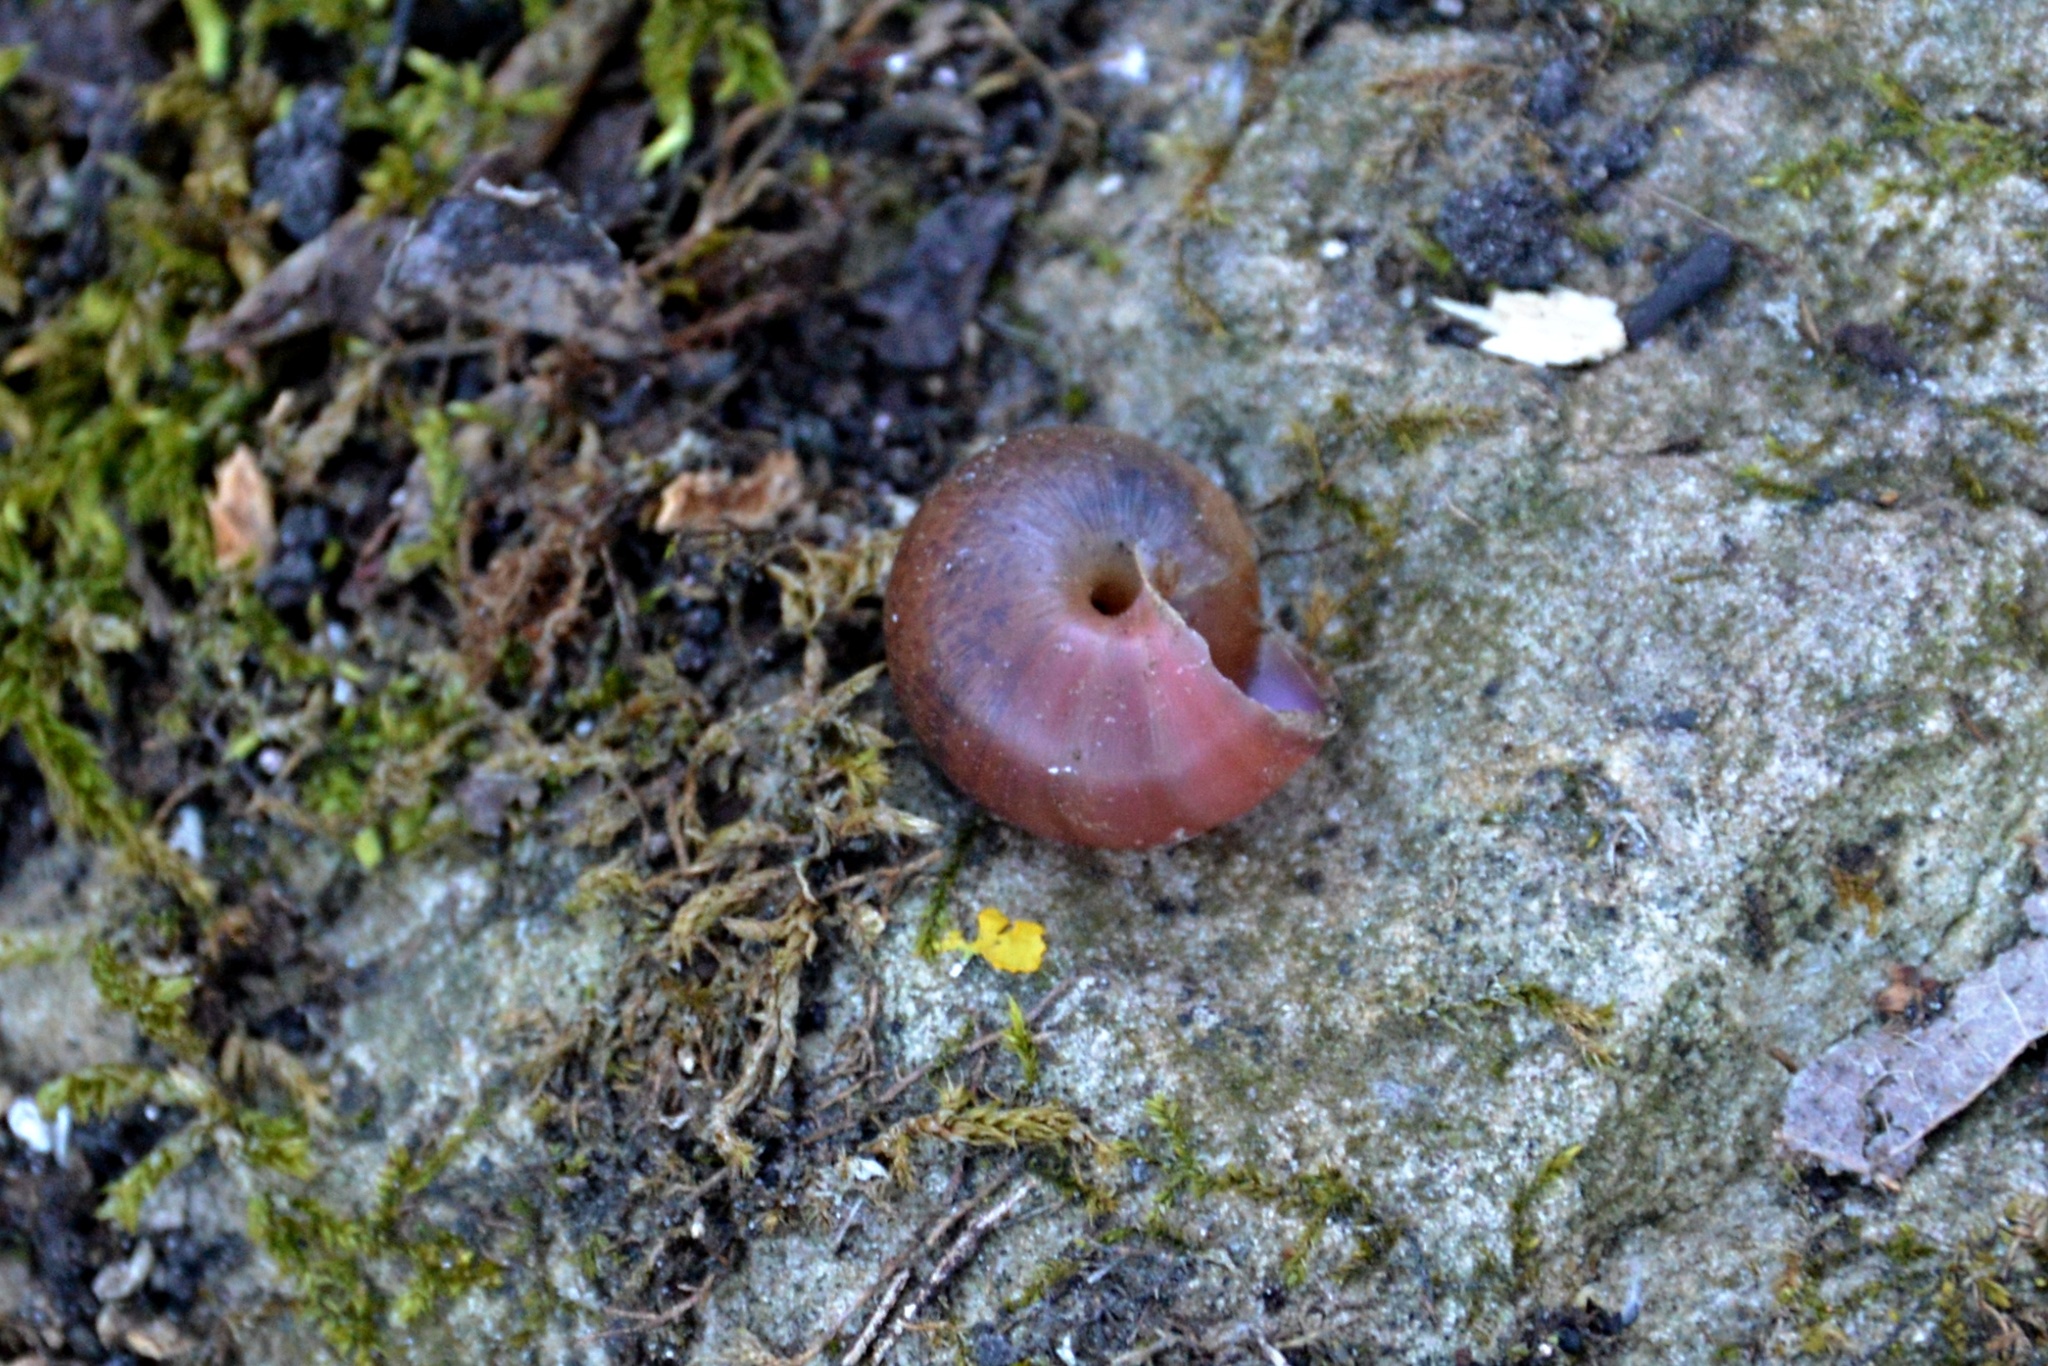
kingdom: Animalia
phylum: Mollusca
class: Gastropoda
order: Stylommatophora
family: Camaenidae
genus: Fruticicola
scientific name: Fruticicola fruticum
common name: Bush snail
